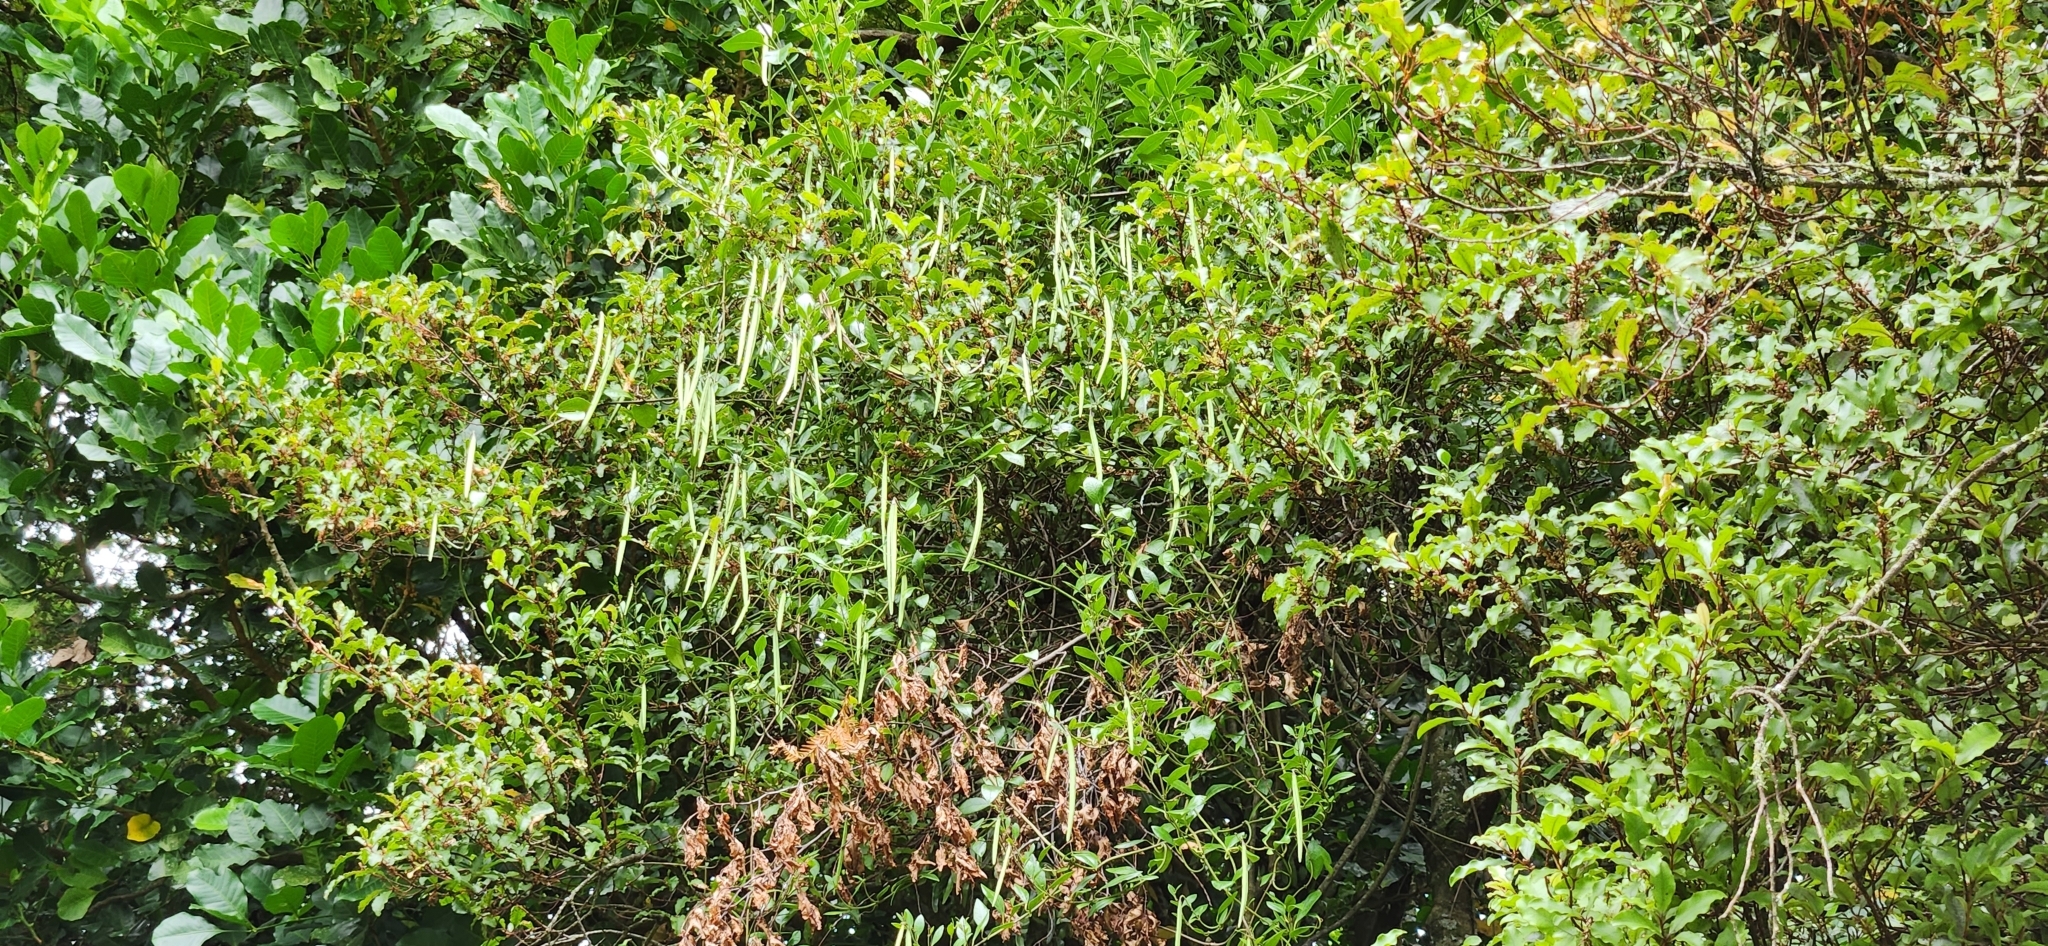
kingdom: Plantae
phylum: Tracheophyta
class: Magnoliopsida
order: Gentianales
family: Apocynaceae
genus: Parsonsia
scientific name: Parsonsia heterophylla
